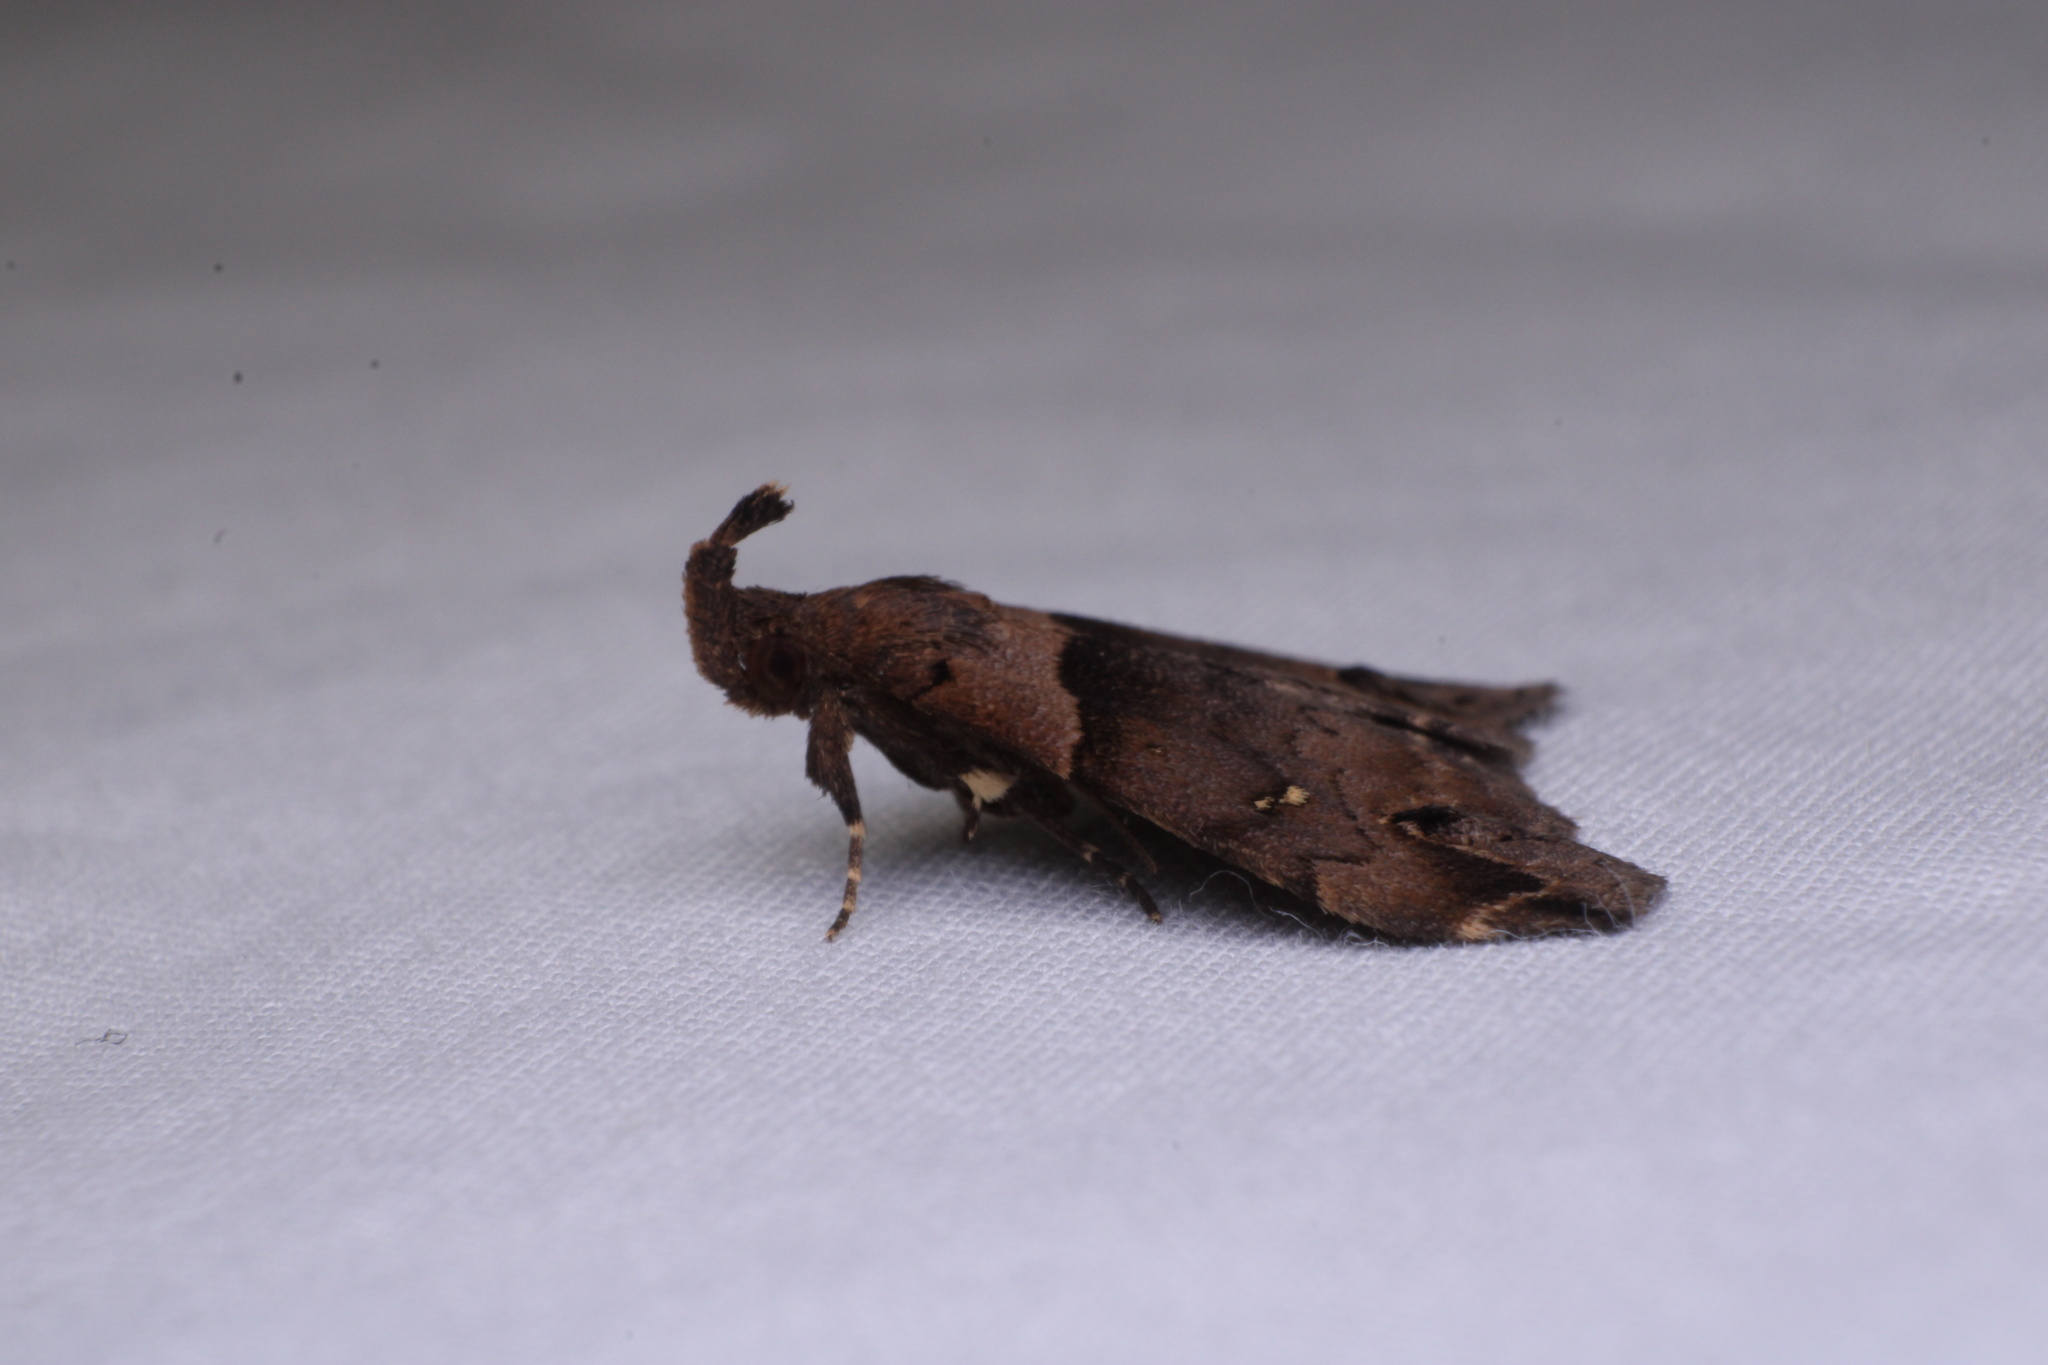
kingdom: Animalia
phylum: Arthropoda
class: Insecta
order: Lepidoptera
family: Erebidae
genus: Lascoria
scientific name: Lascoria ambigualis
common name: Ambiguous moth
